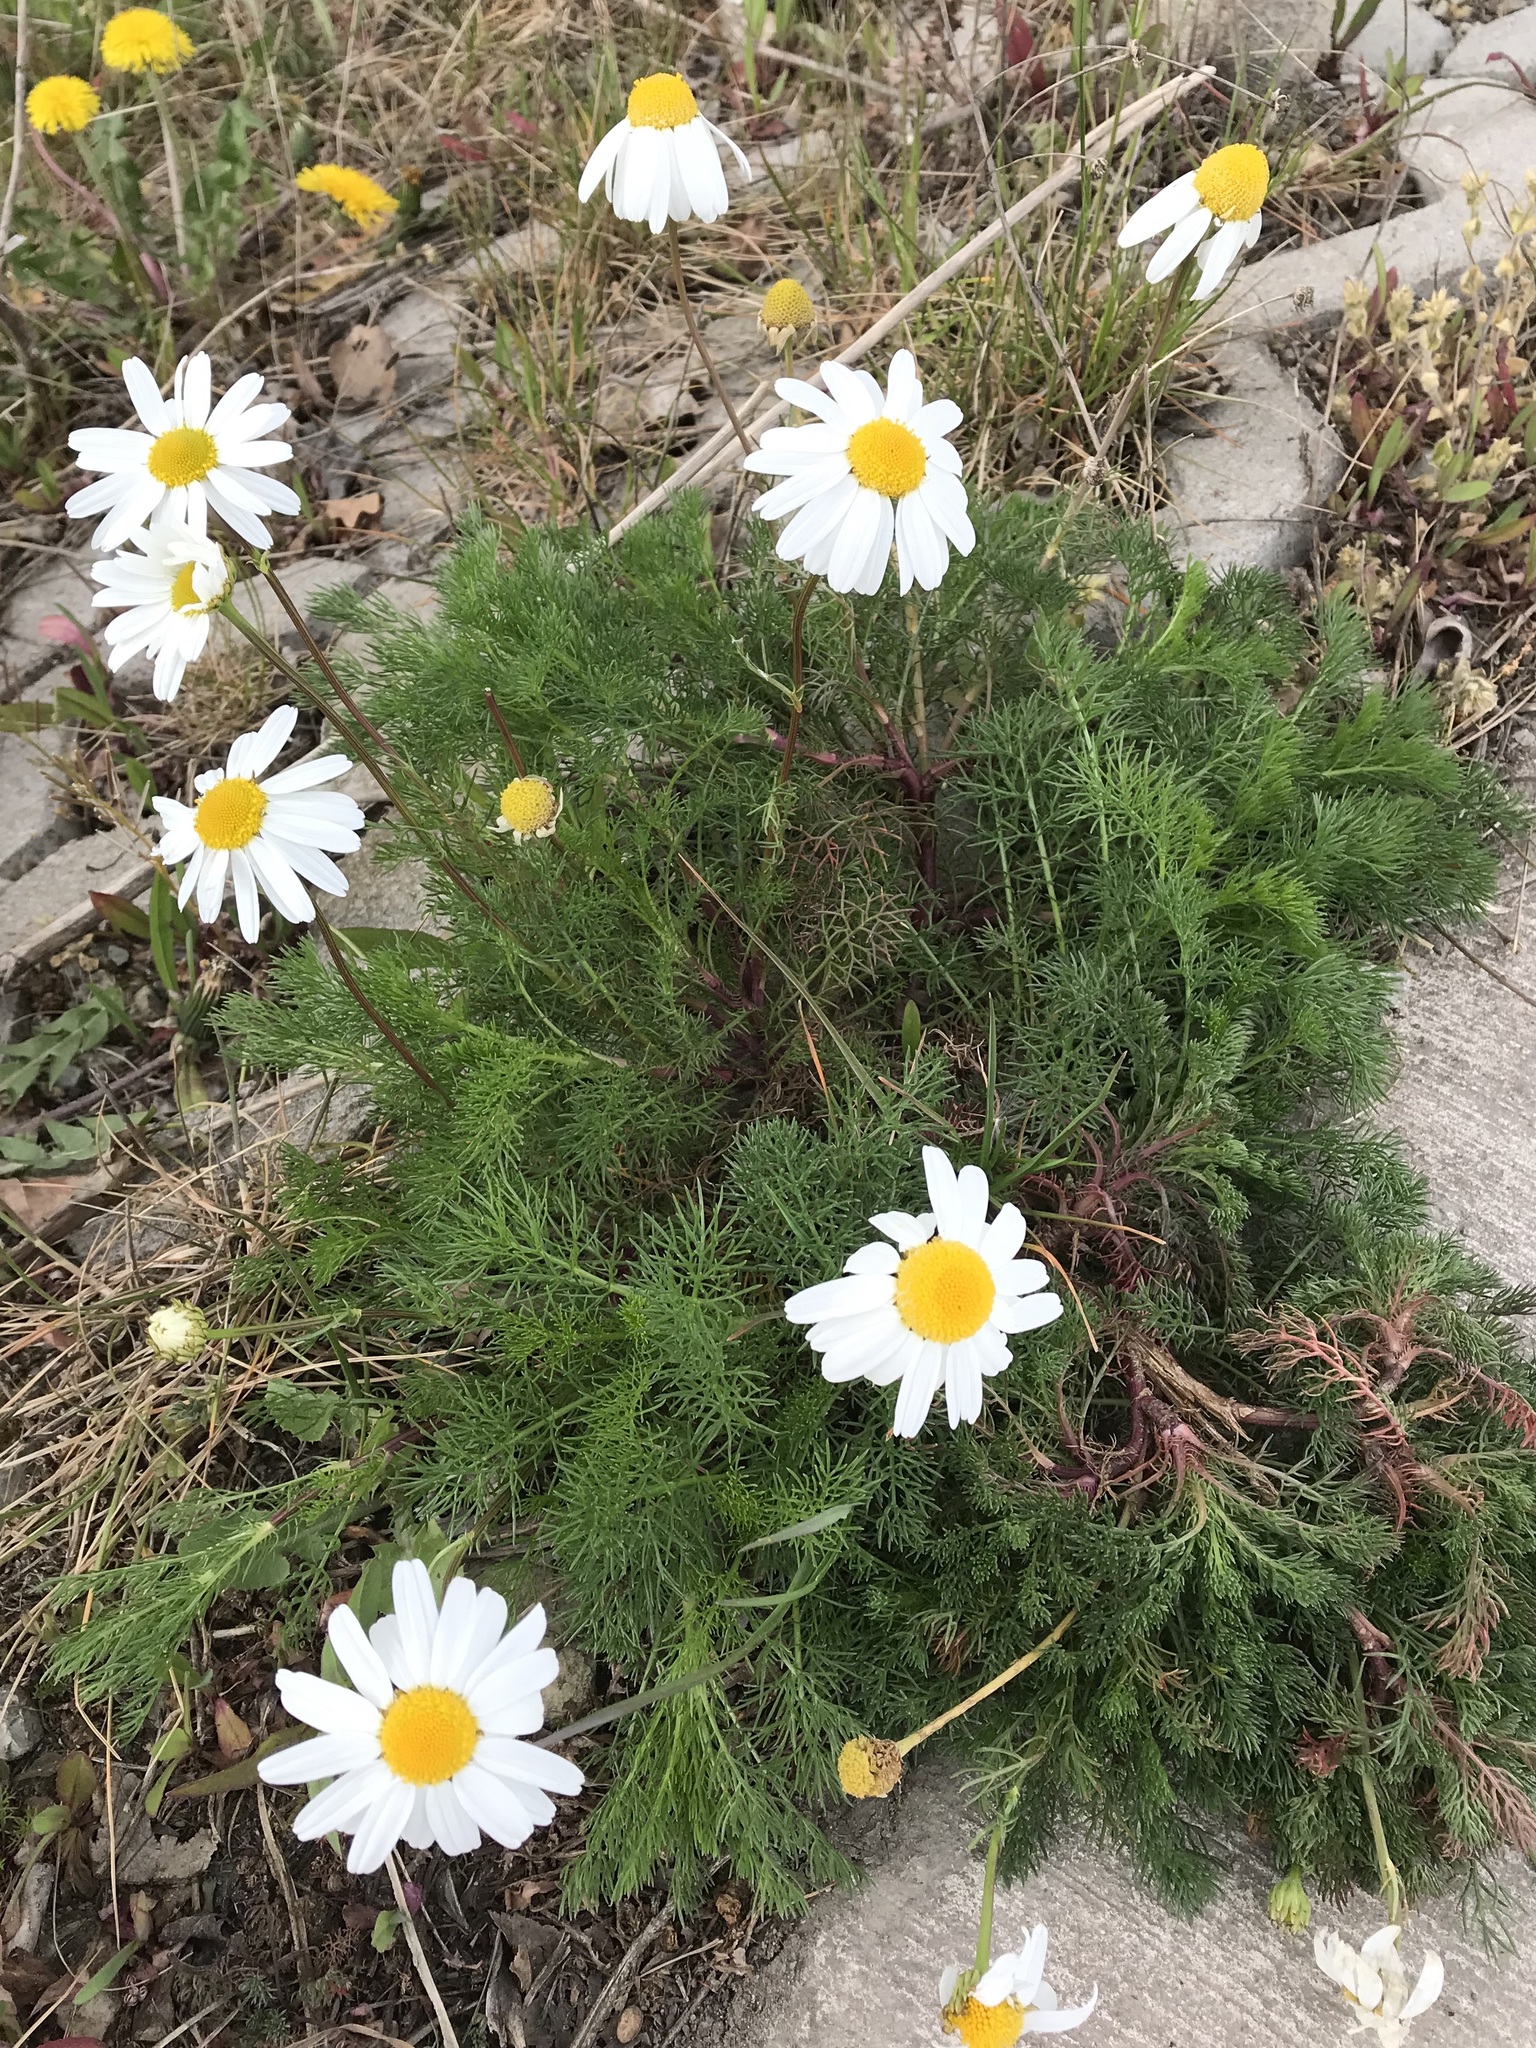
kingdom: Plantae
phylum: Tracheophyta
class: Magnoliopsida
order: Asterales
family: Asteraceae
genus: Tripleurospermum
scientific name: Tripleurospermum inodorum
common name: Scentless mayweed
